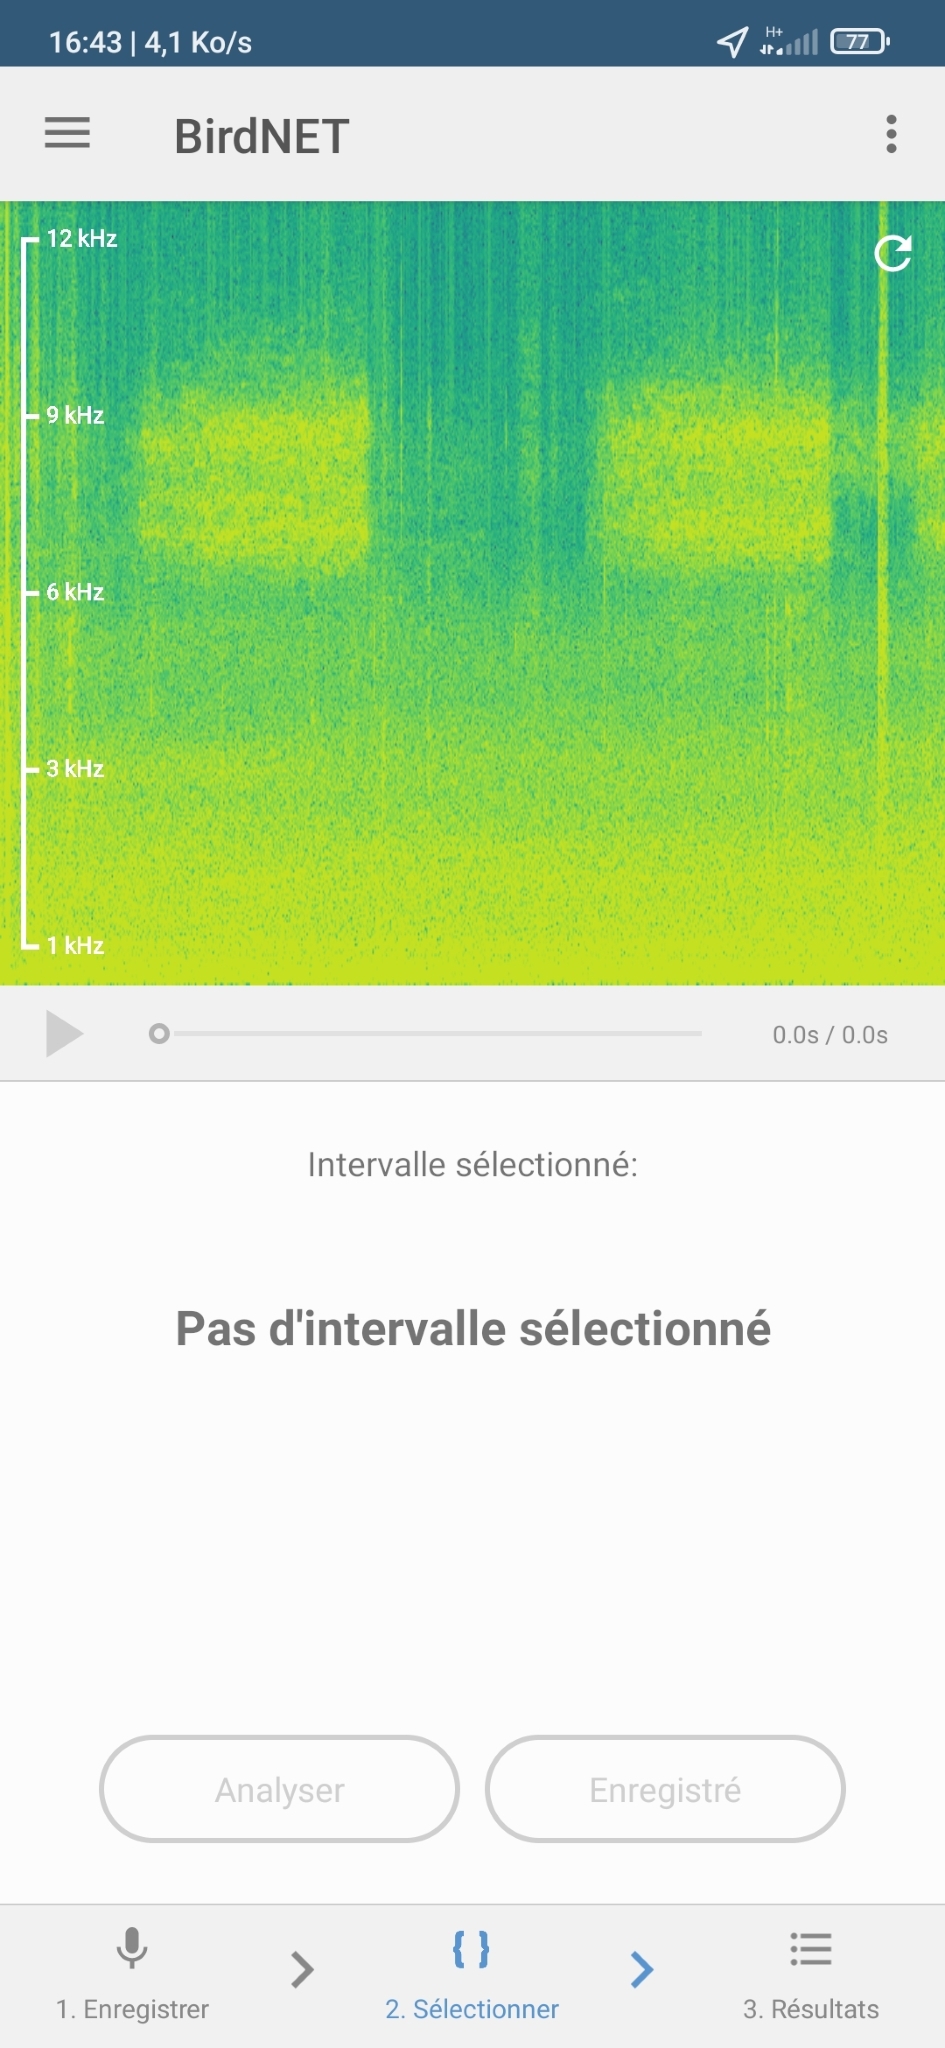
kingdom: Animalia
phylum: Arthropoda
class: Insecta
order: Orthoptera
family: Tettigoniidae
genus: Tettigonia
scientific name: Tettigonia cantans
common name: Upland green bush-cricket
